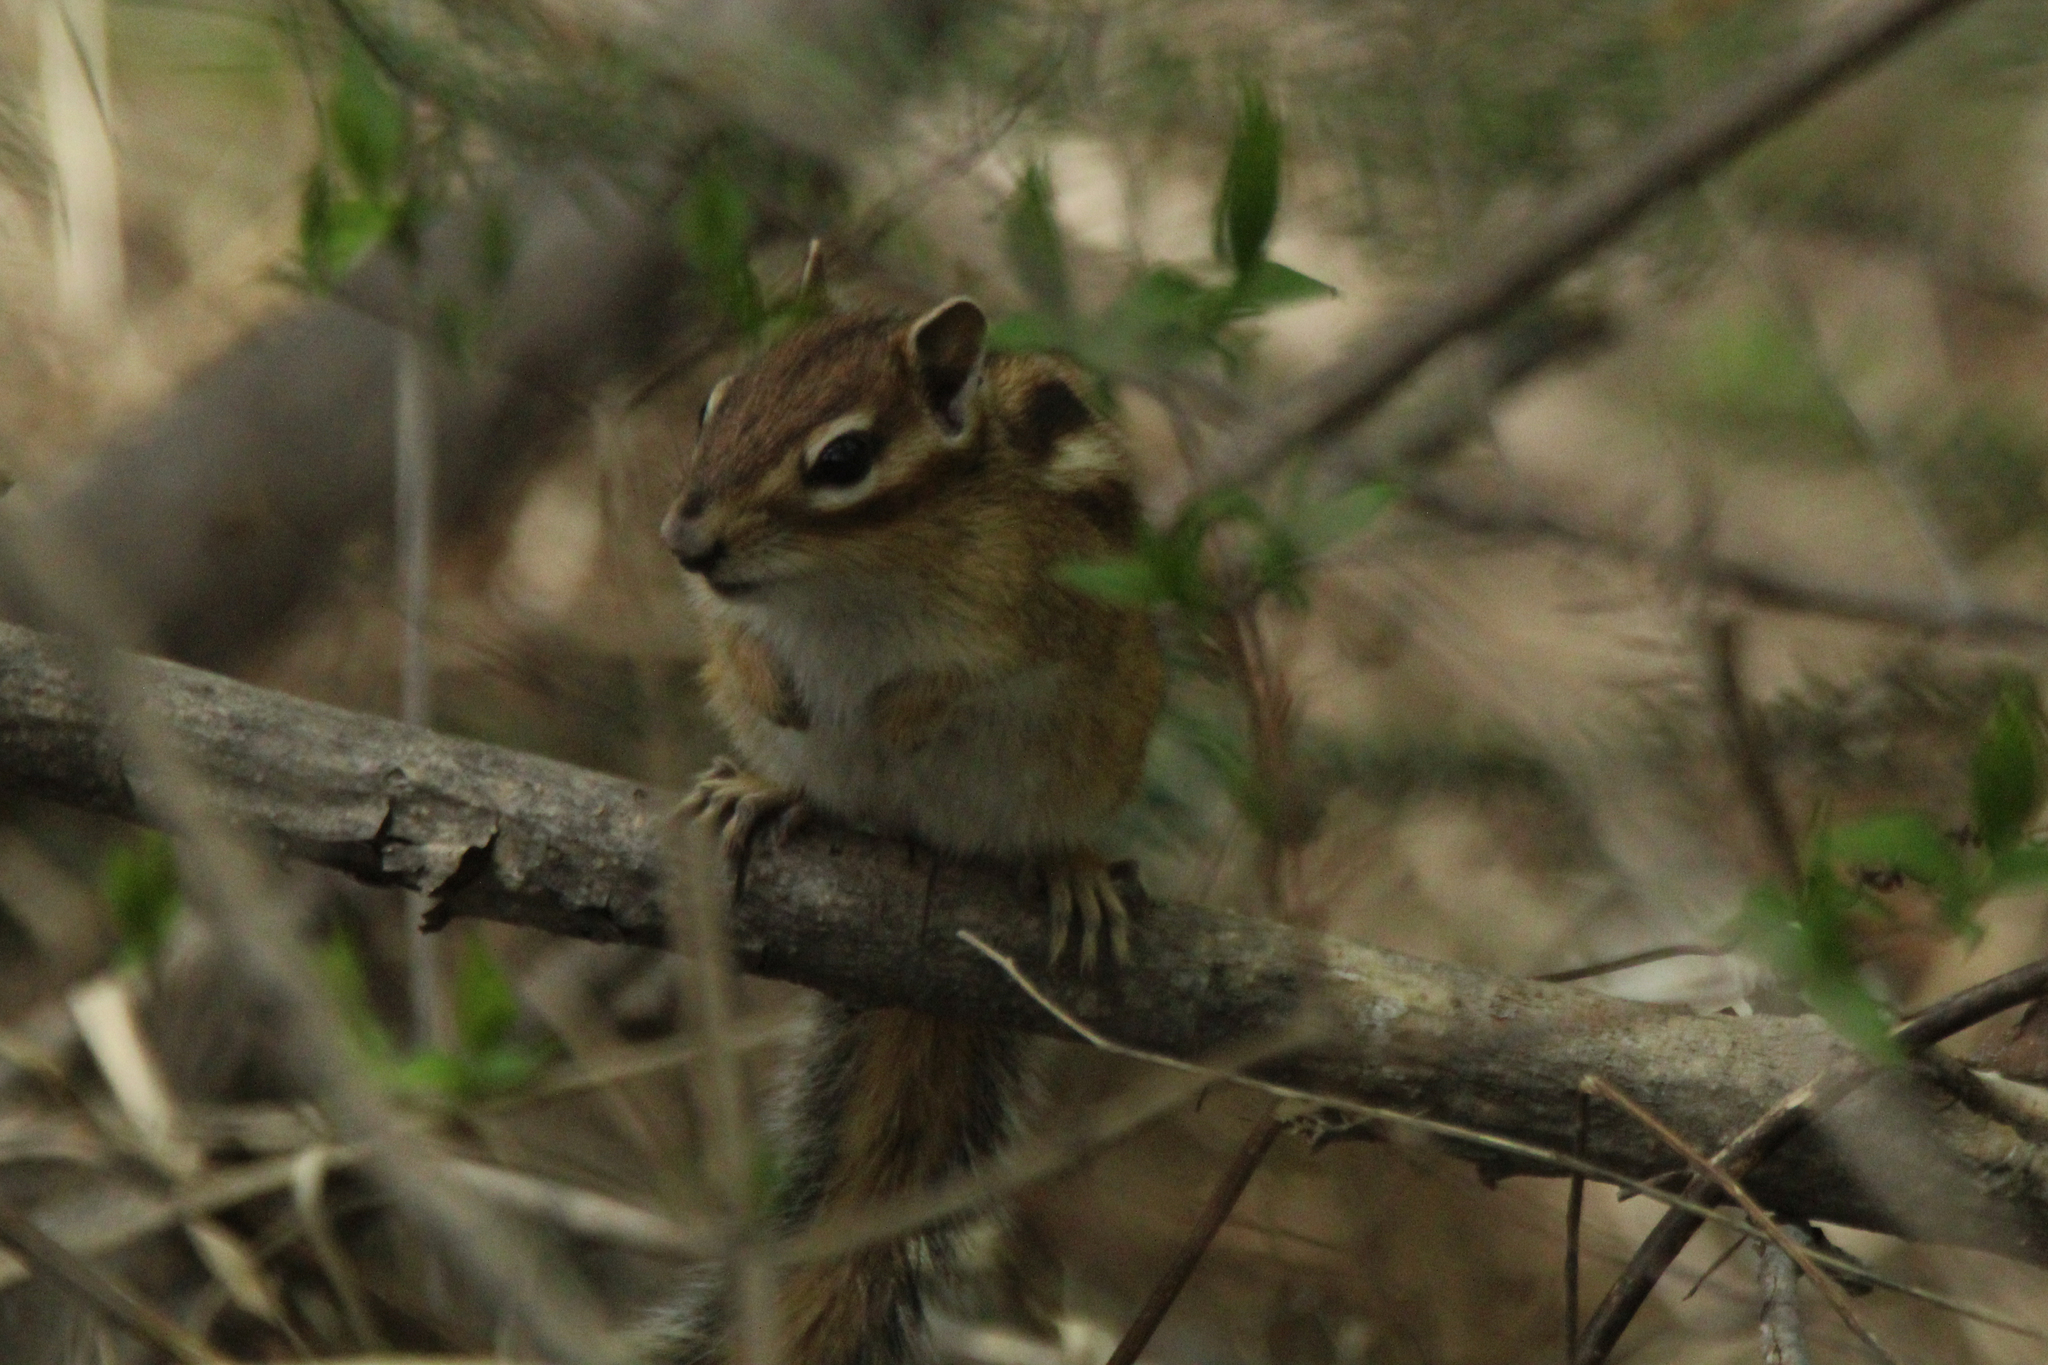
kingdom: Animalia
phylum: Chordata
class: Mammalia
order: Rodentia
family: Sciuridae
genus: Tamias
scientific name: Tamias sibiricus
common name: Siberian chipmunk
